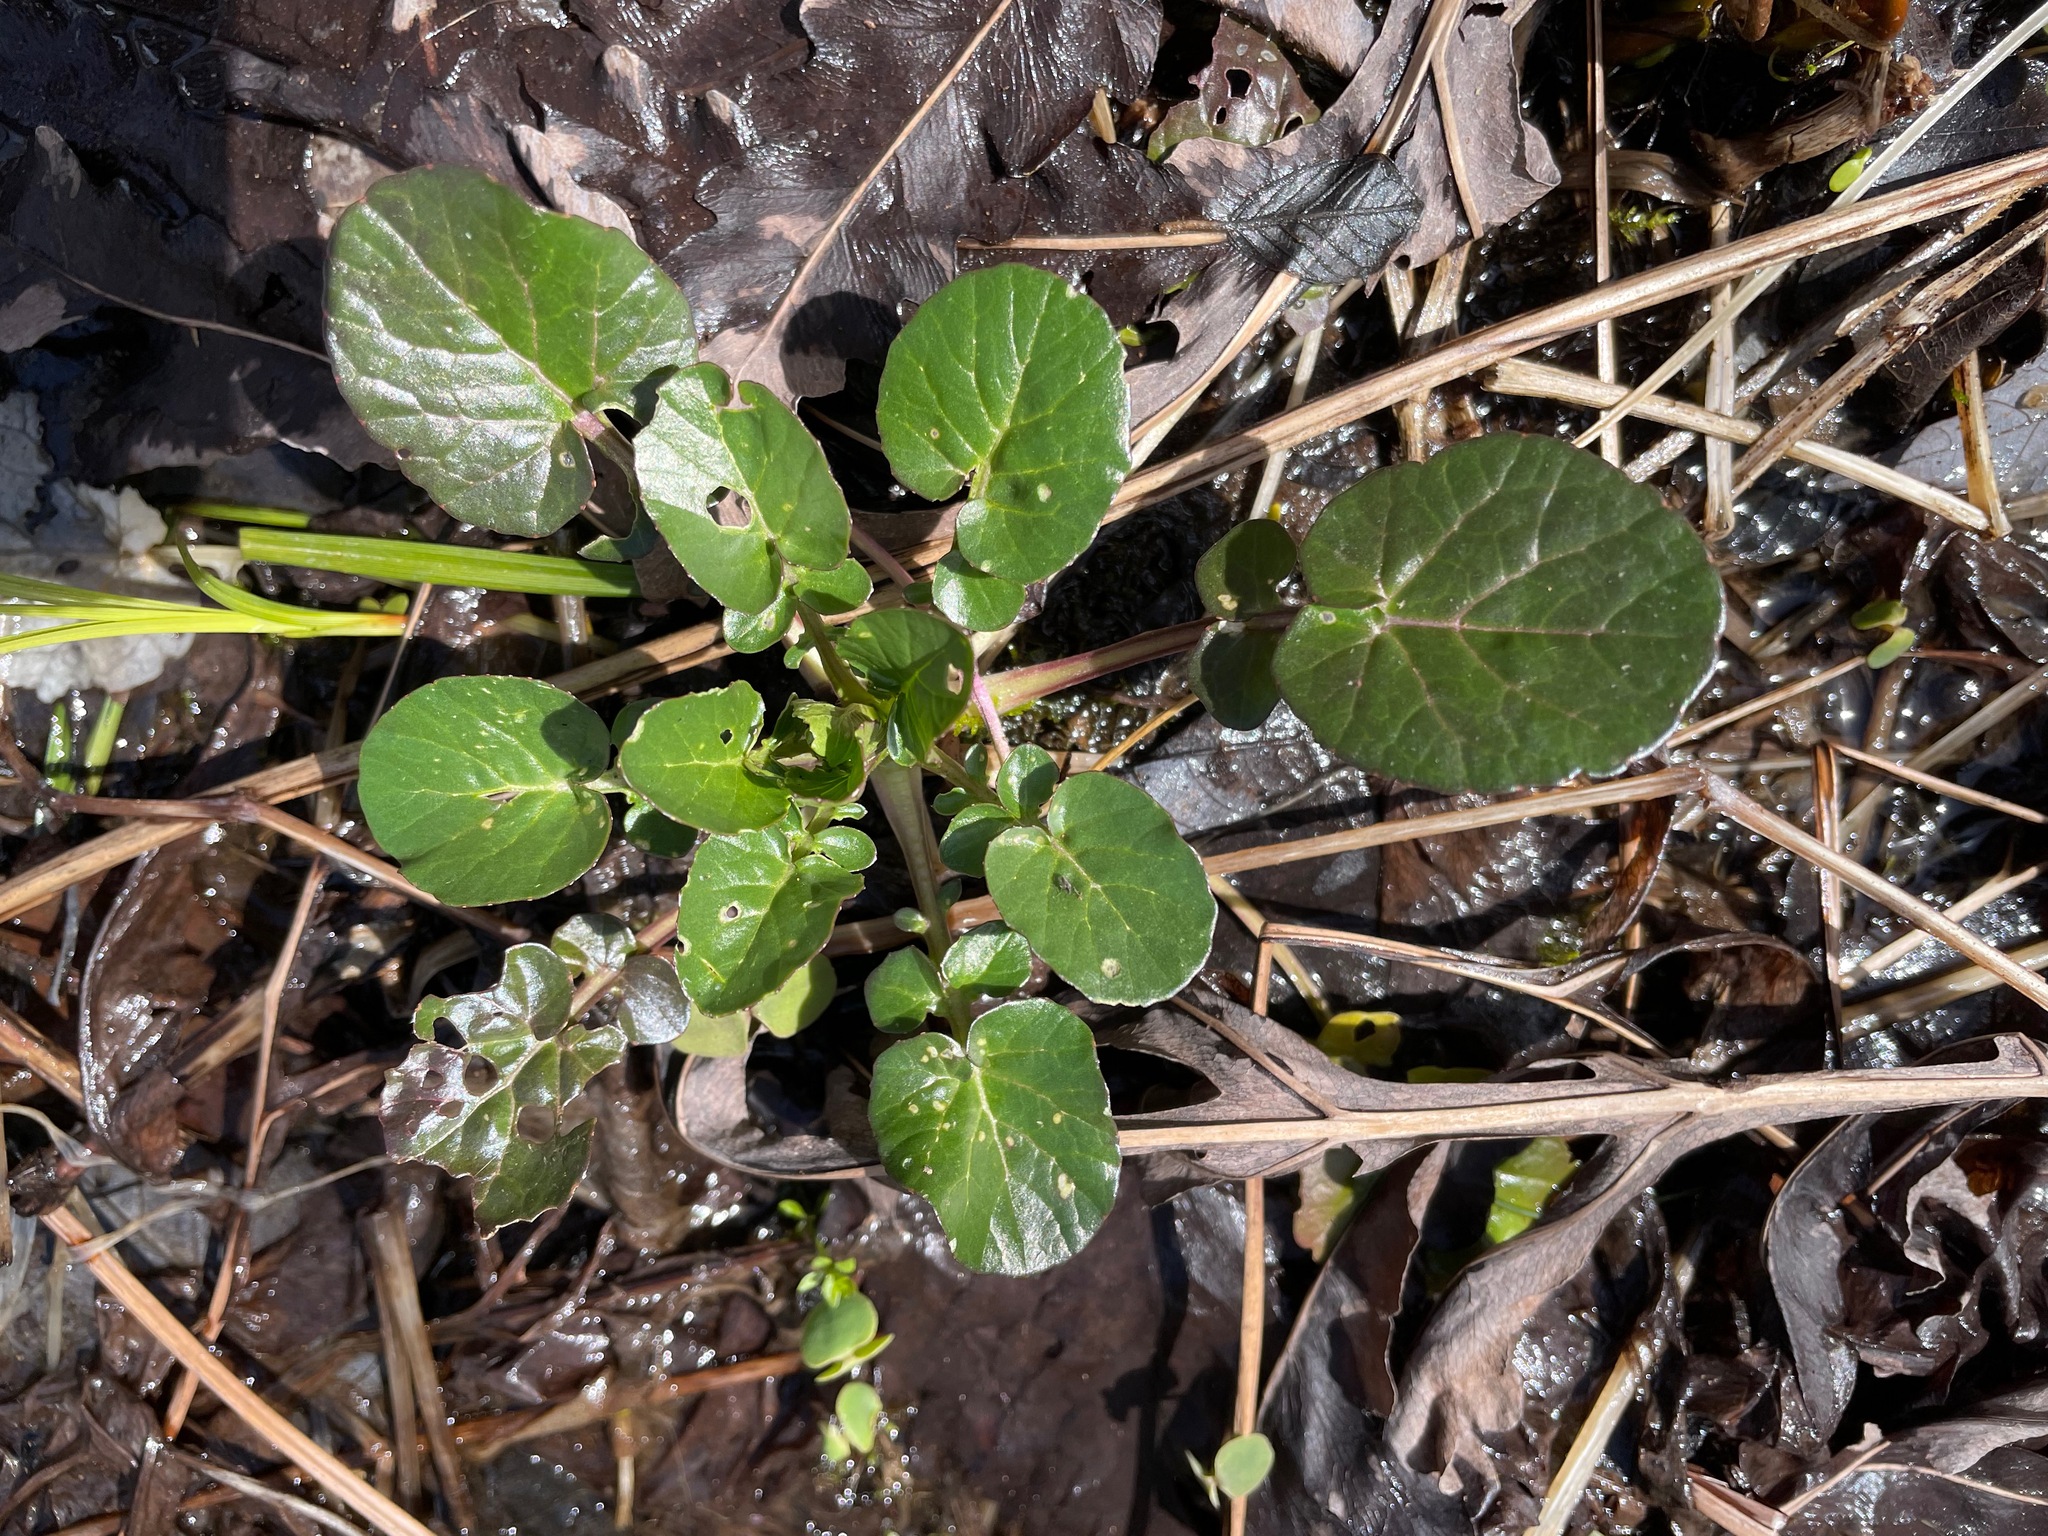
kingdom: Plantae
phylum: Tracheophyta
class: Magnoliopsida
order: Brassicales
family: Brassicaceae
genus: Barbarea
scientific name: Barbarea vulgaris
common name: Cressy-greens
